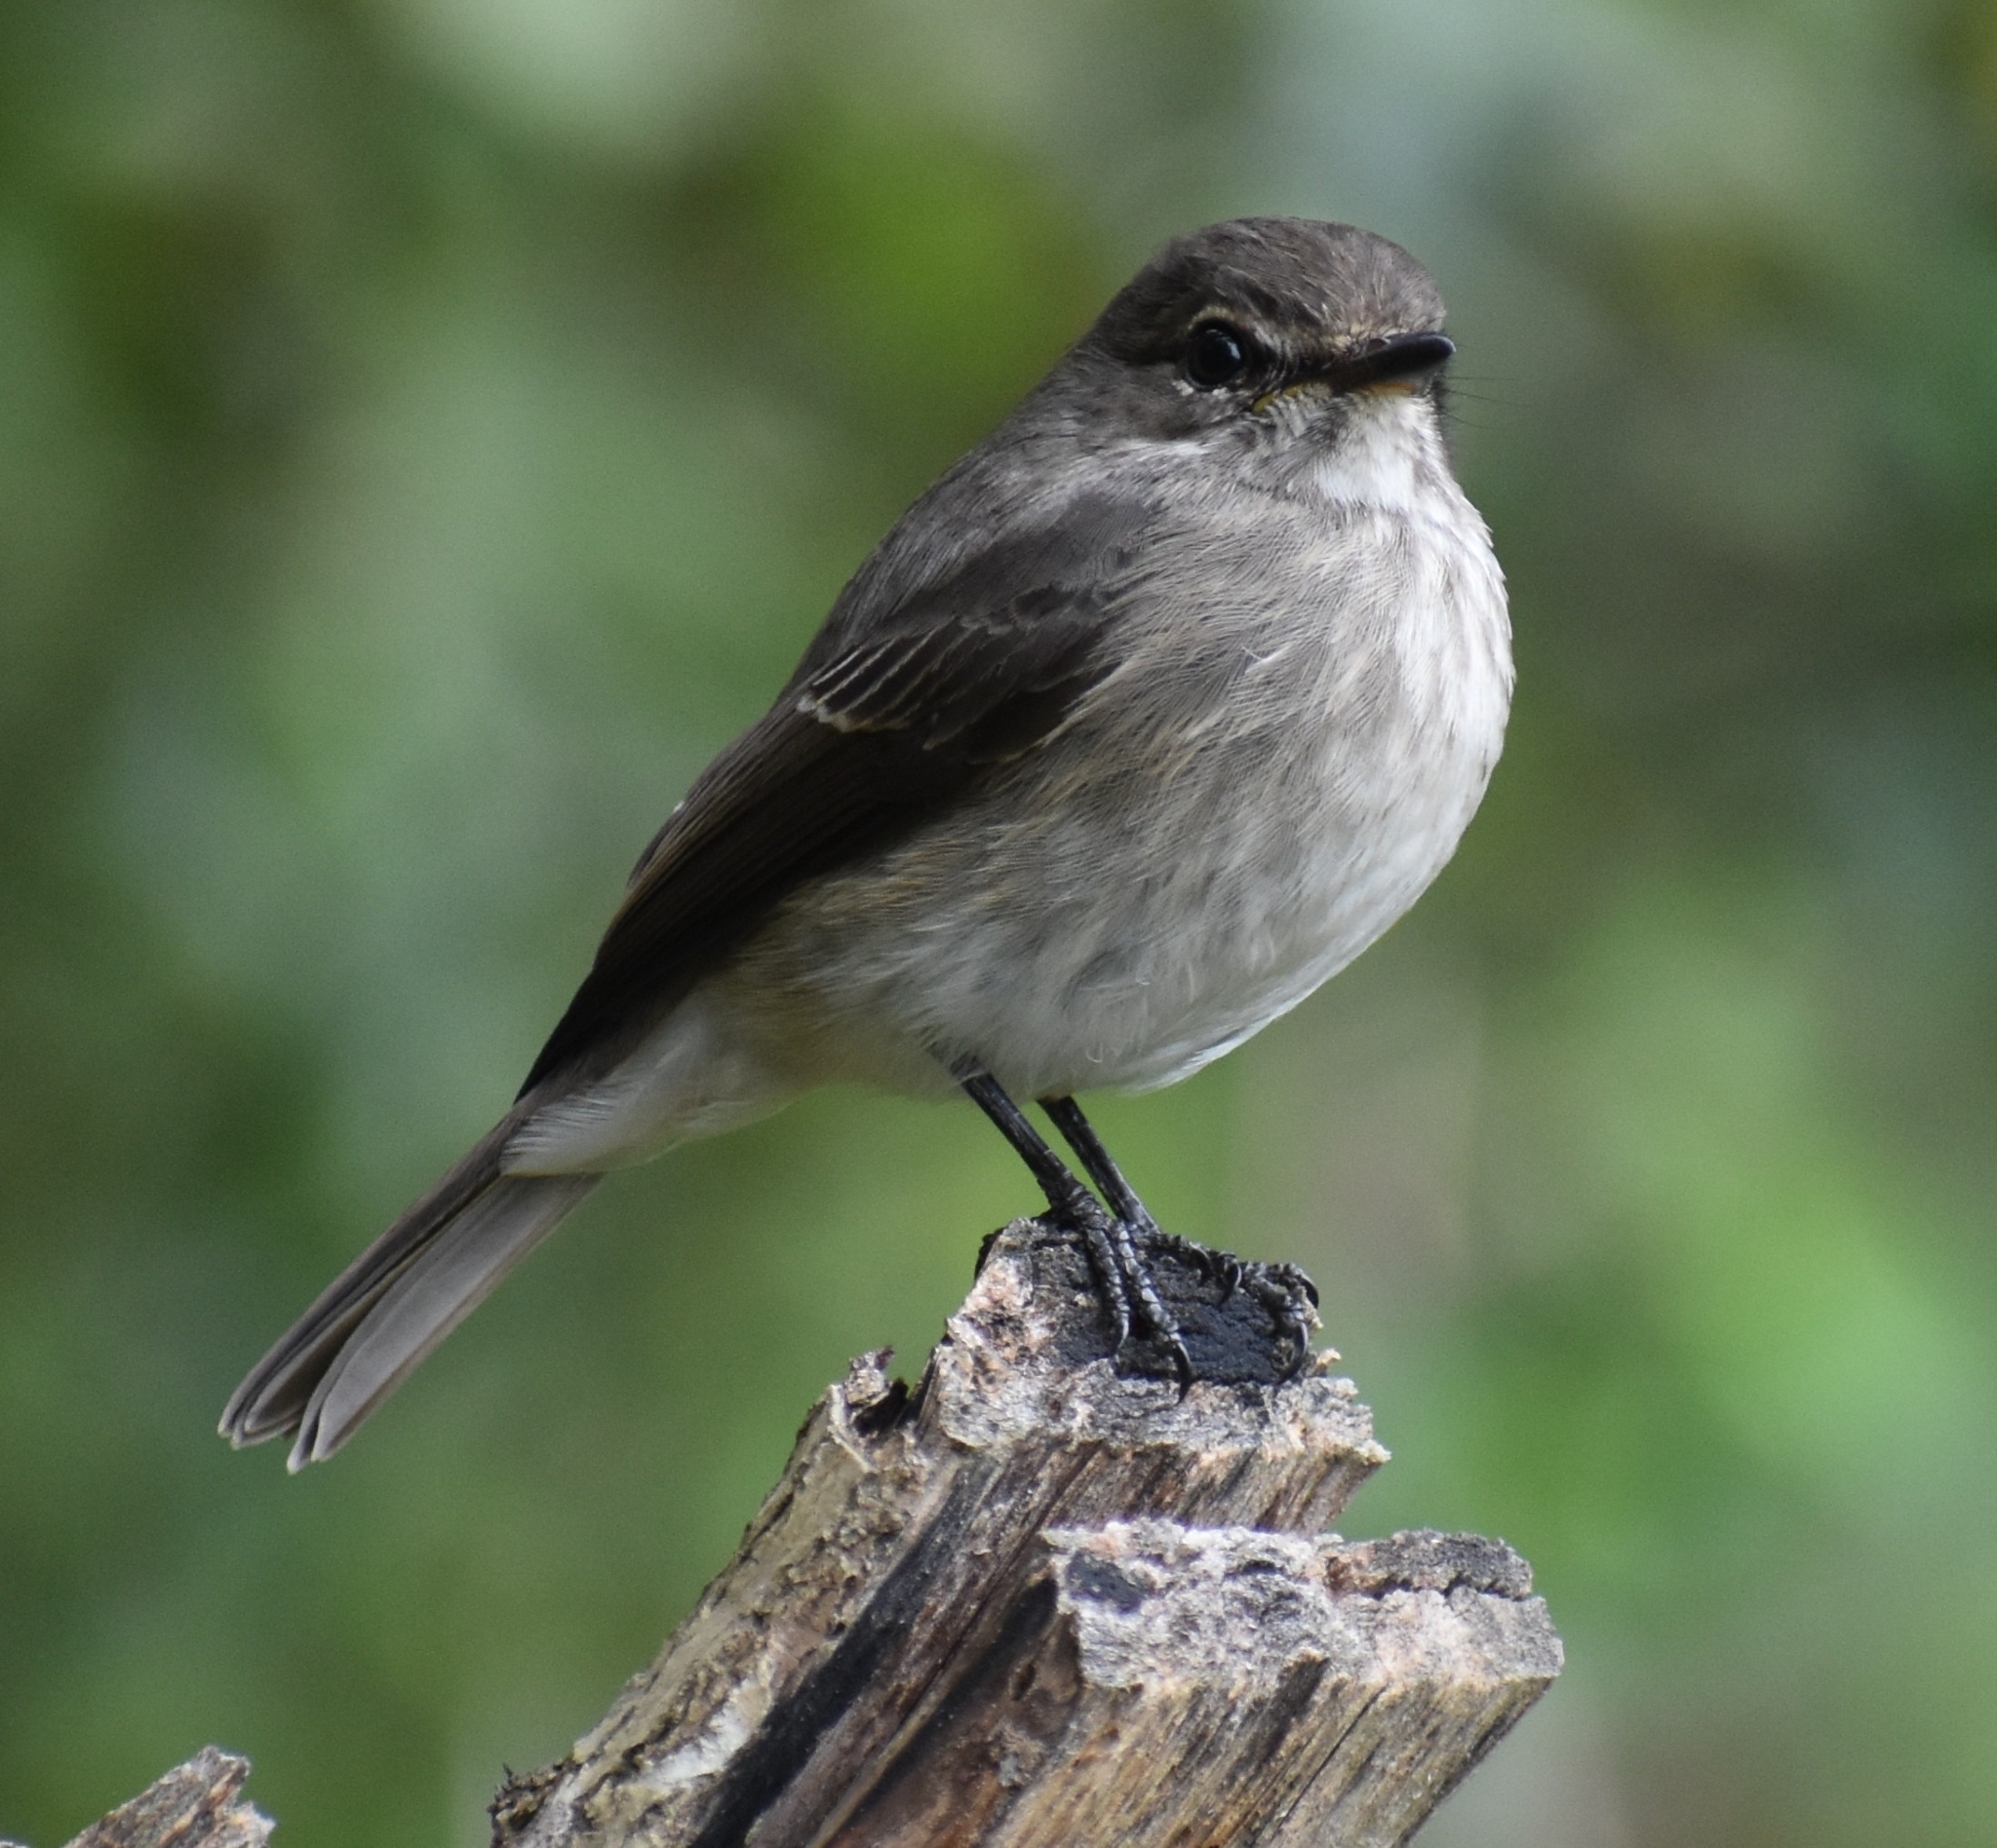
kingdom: Animalia
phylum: Chordata
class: Aves
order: Passeriformes
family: Muscicapidae
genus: Muscicapa
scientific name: Muscicapa adusta
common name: African dusky flycatcher
